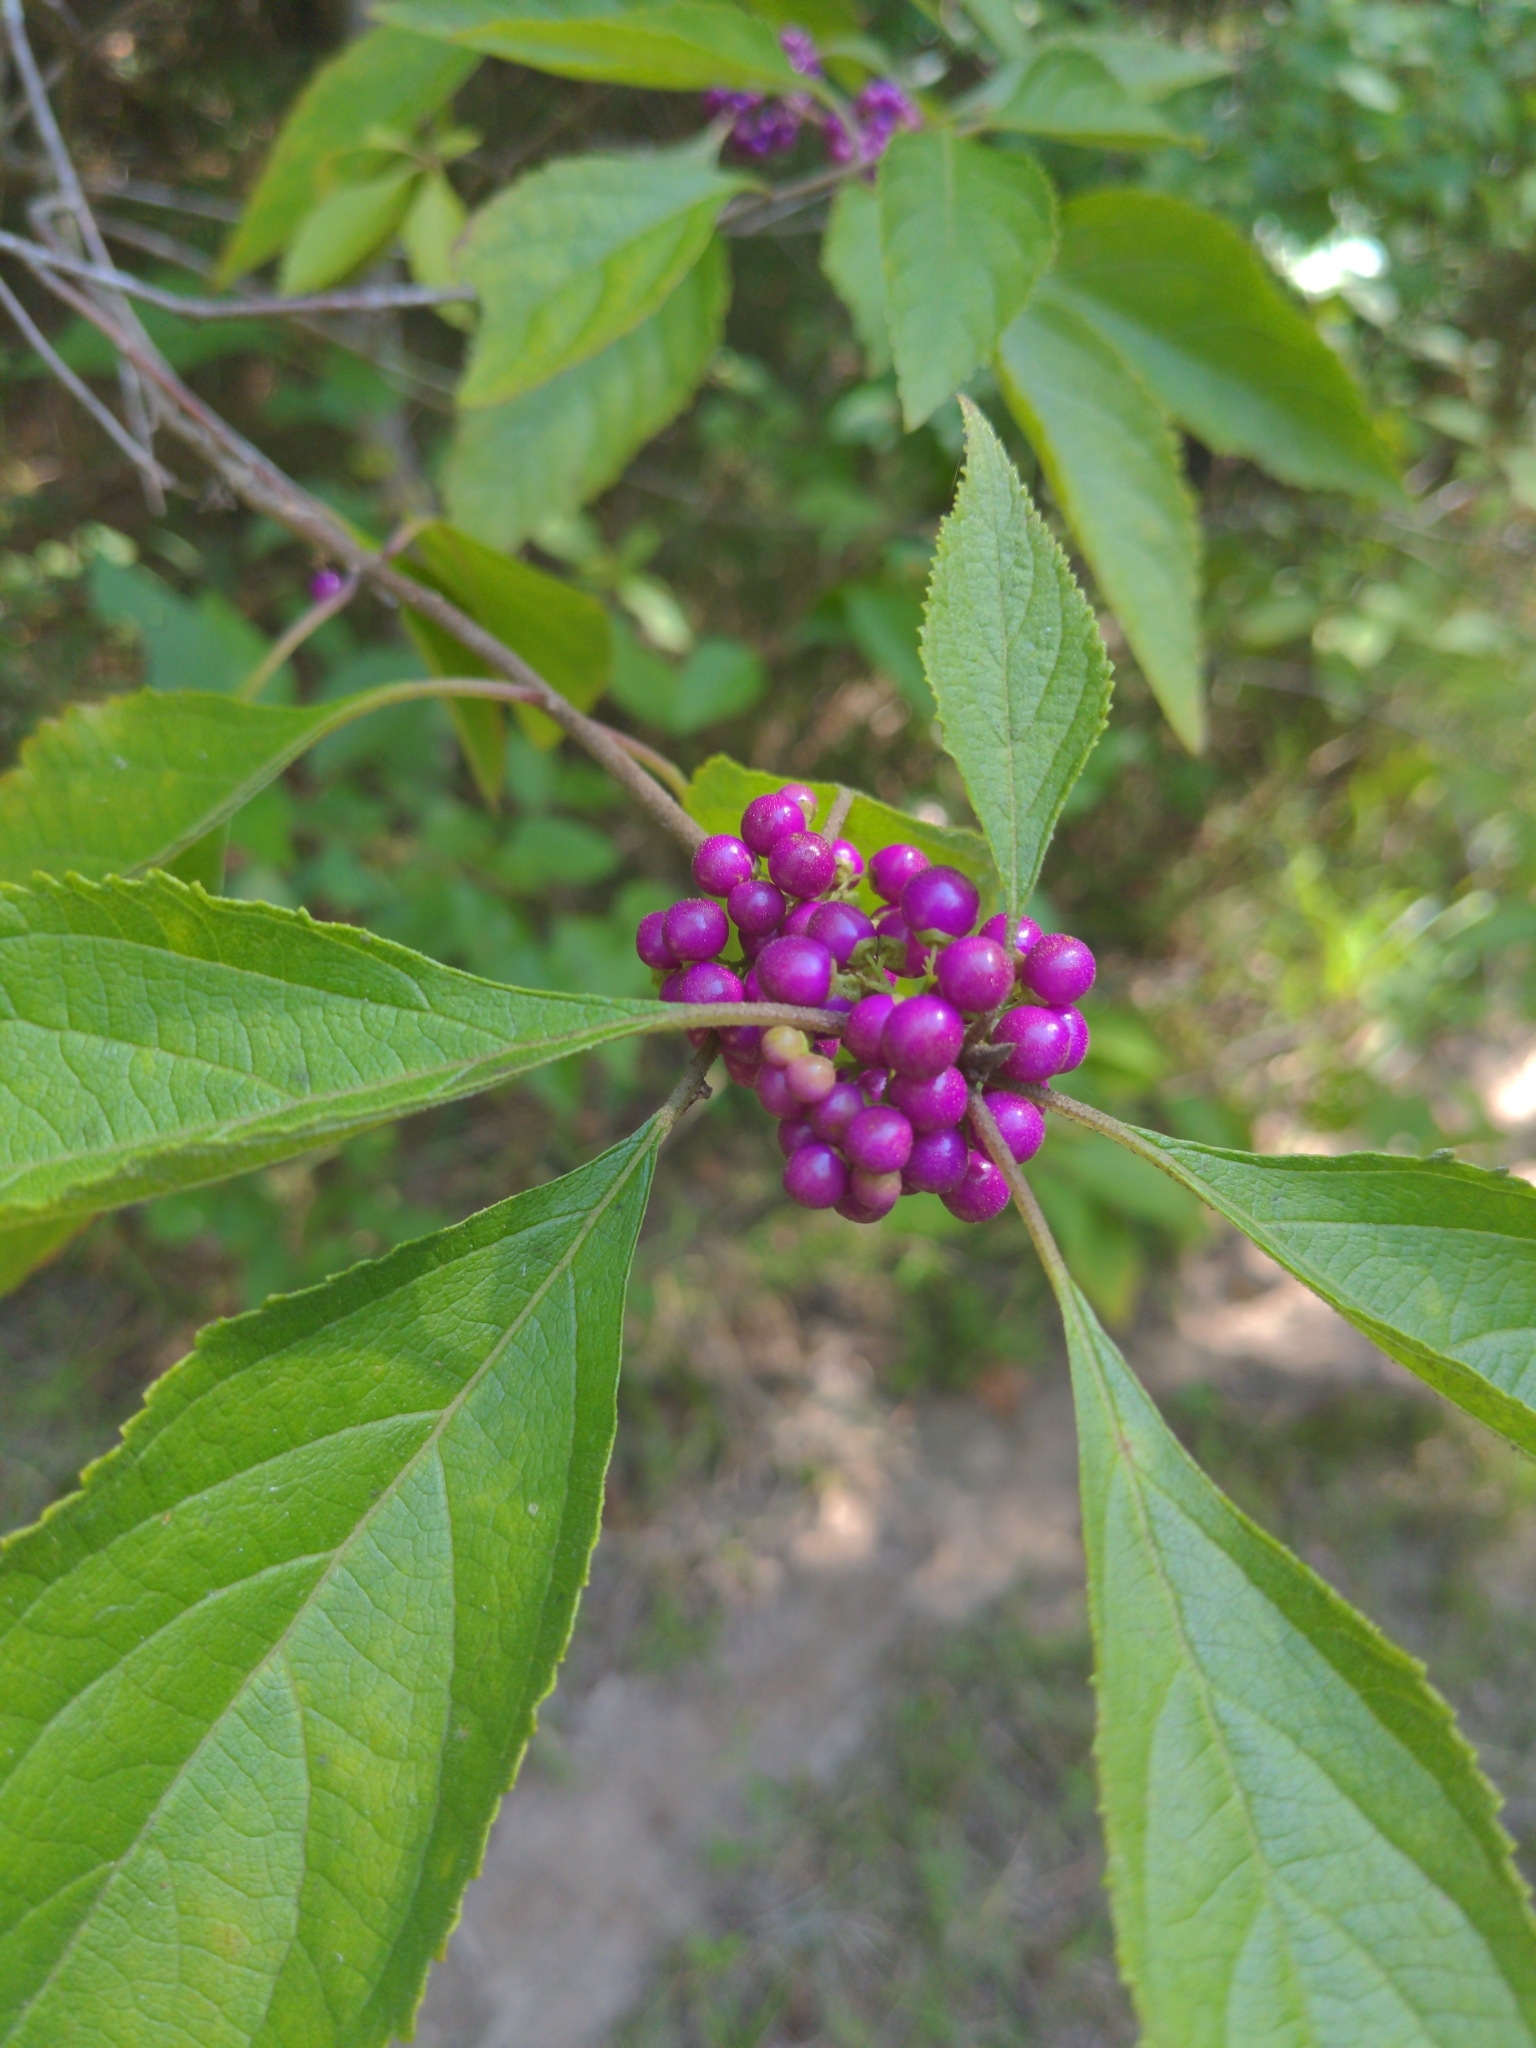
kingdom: Plantae
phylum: Tracheophyta
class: Magnoliopsida
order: Lamiales
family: Lamiaceae
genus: Callicarpa
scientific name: Callicarpa americana
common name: American beautyberry
